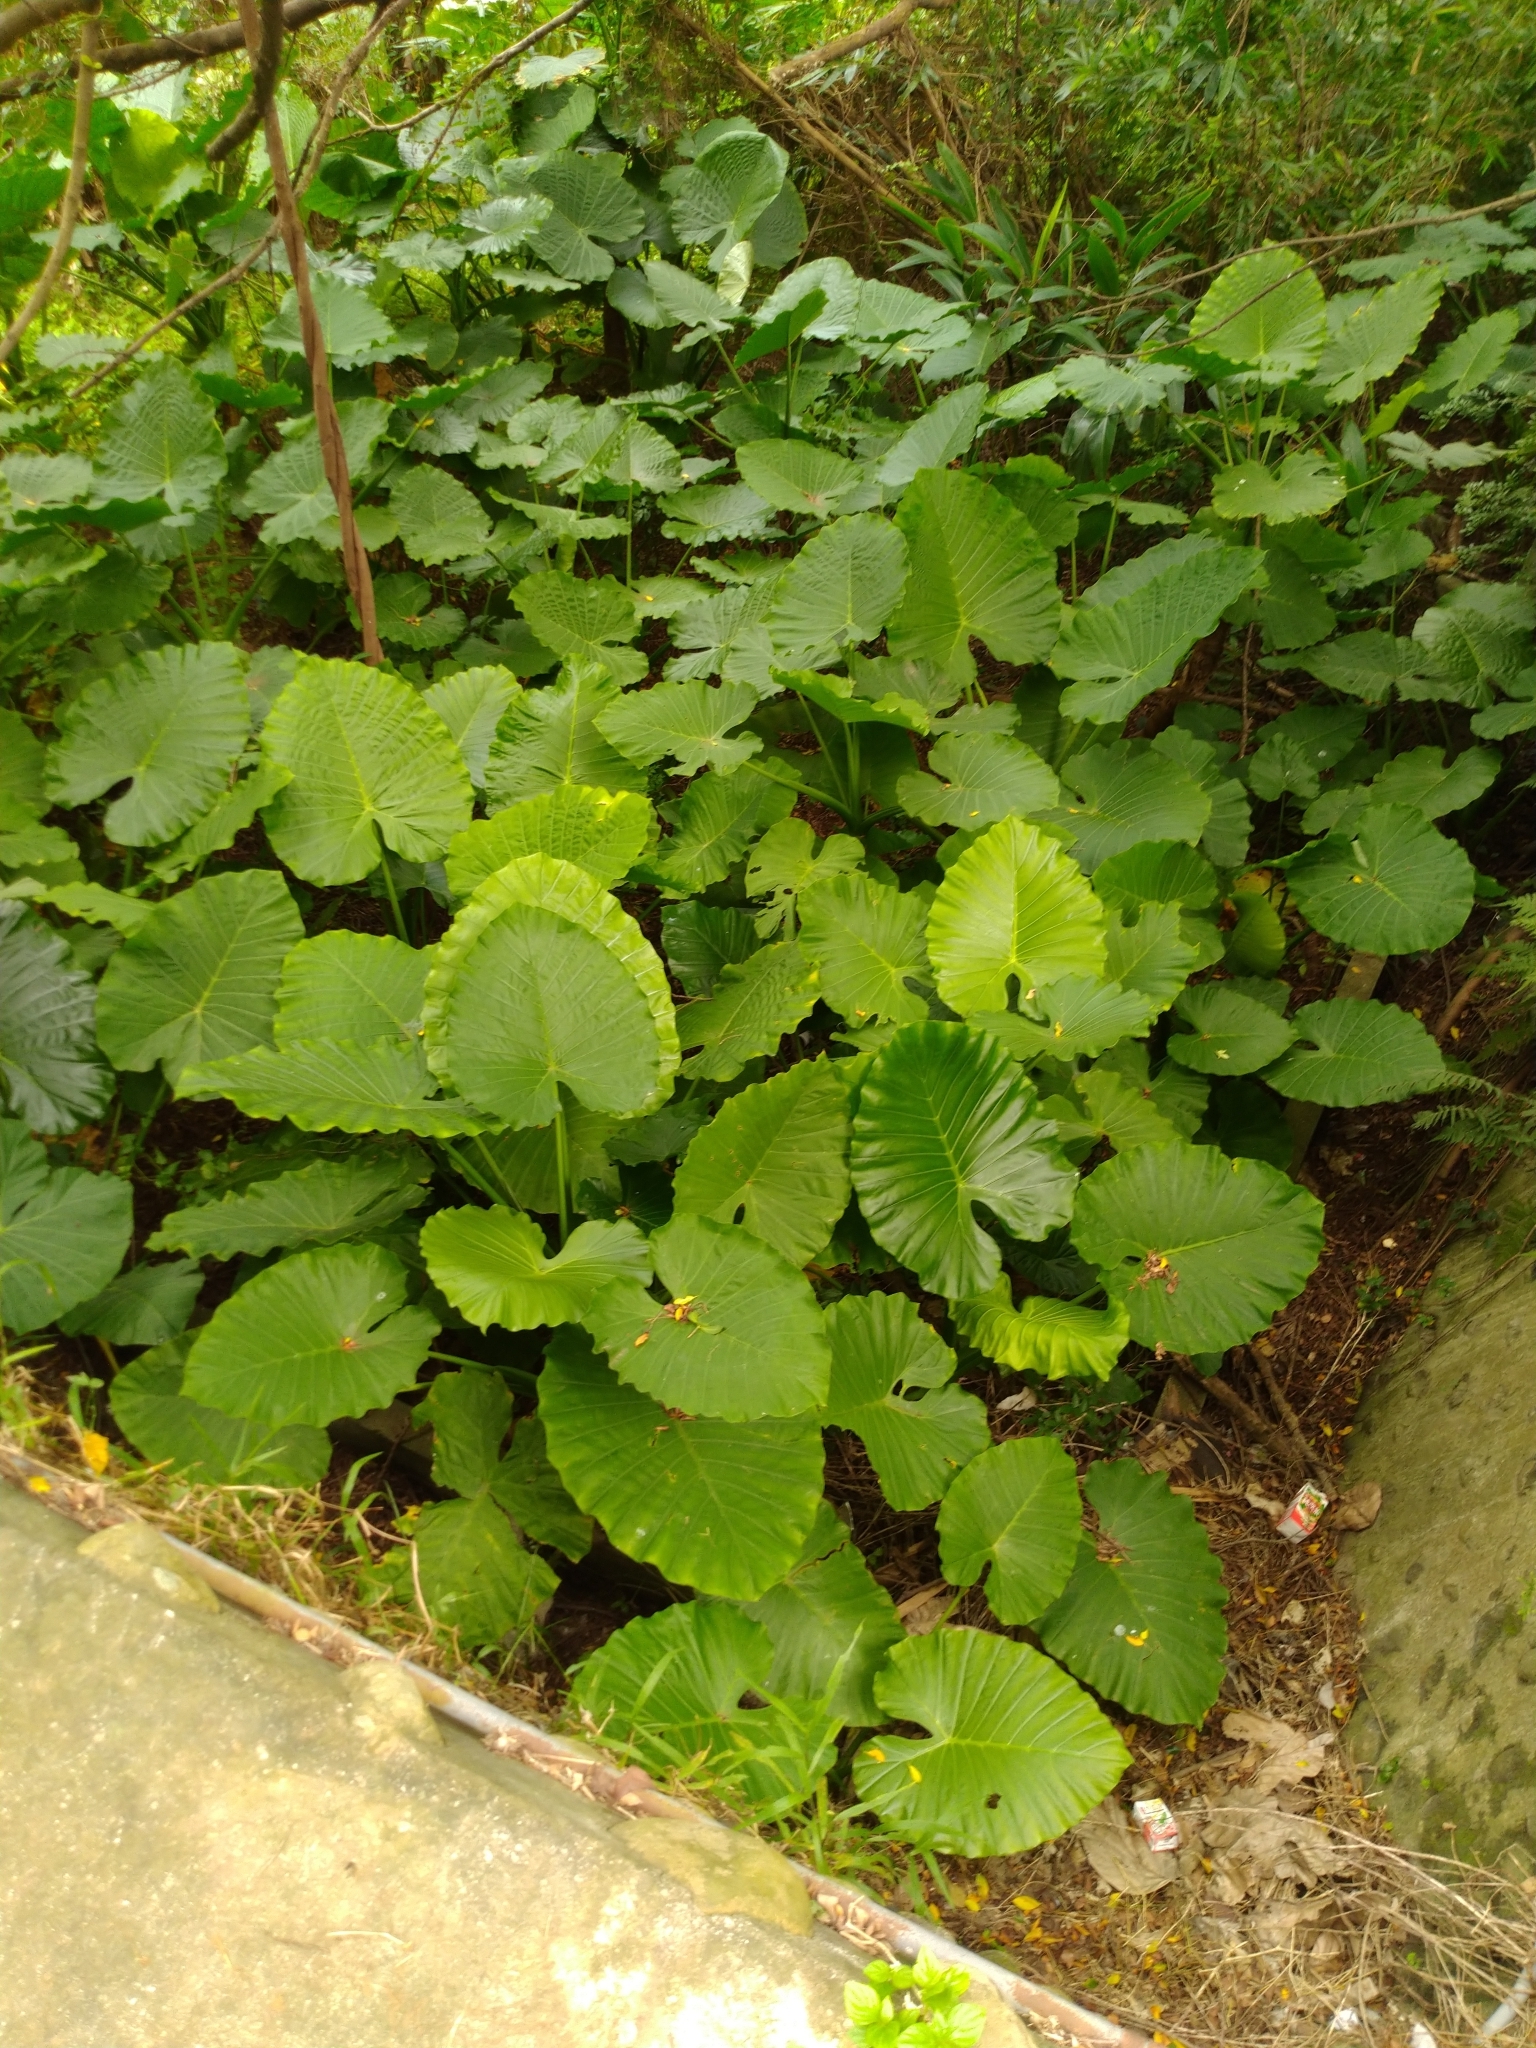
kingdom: Plantae
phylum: Tracheophyta
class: Liliopsida
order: Alismatales
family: Araceae
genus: Alocasia
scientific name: Alocasia odora
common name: Asian taro
